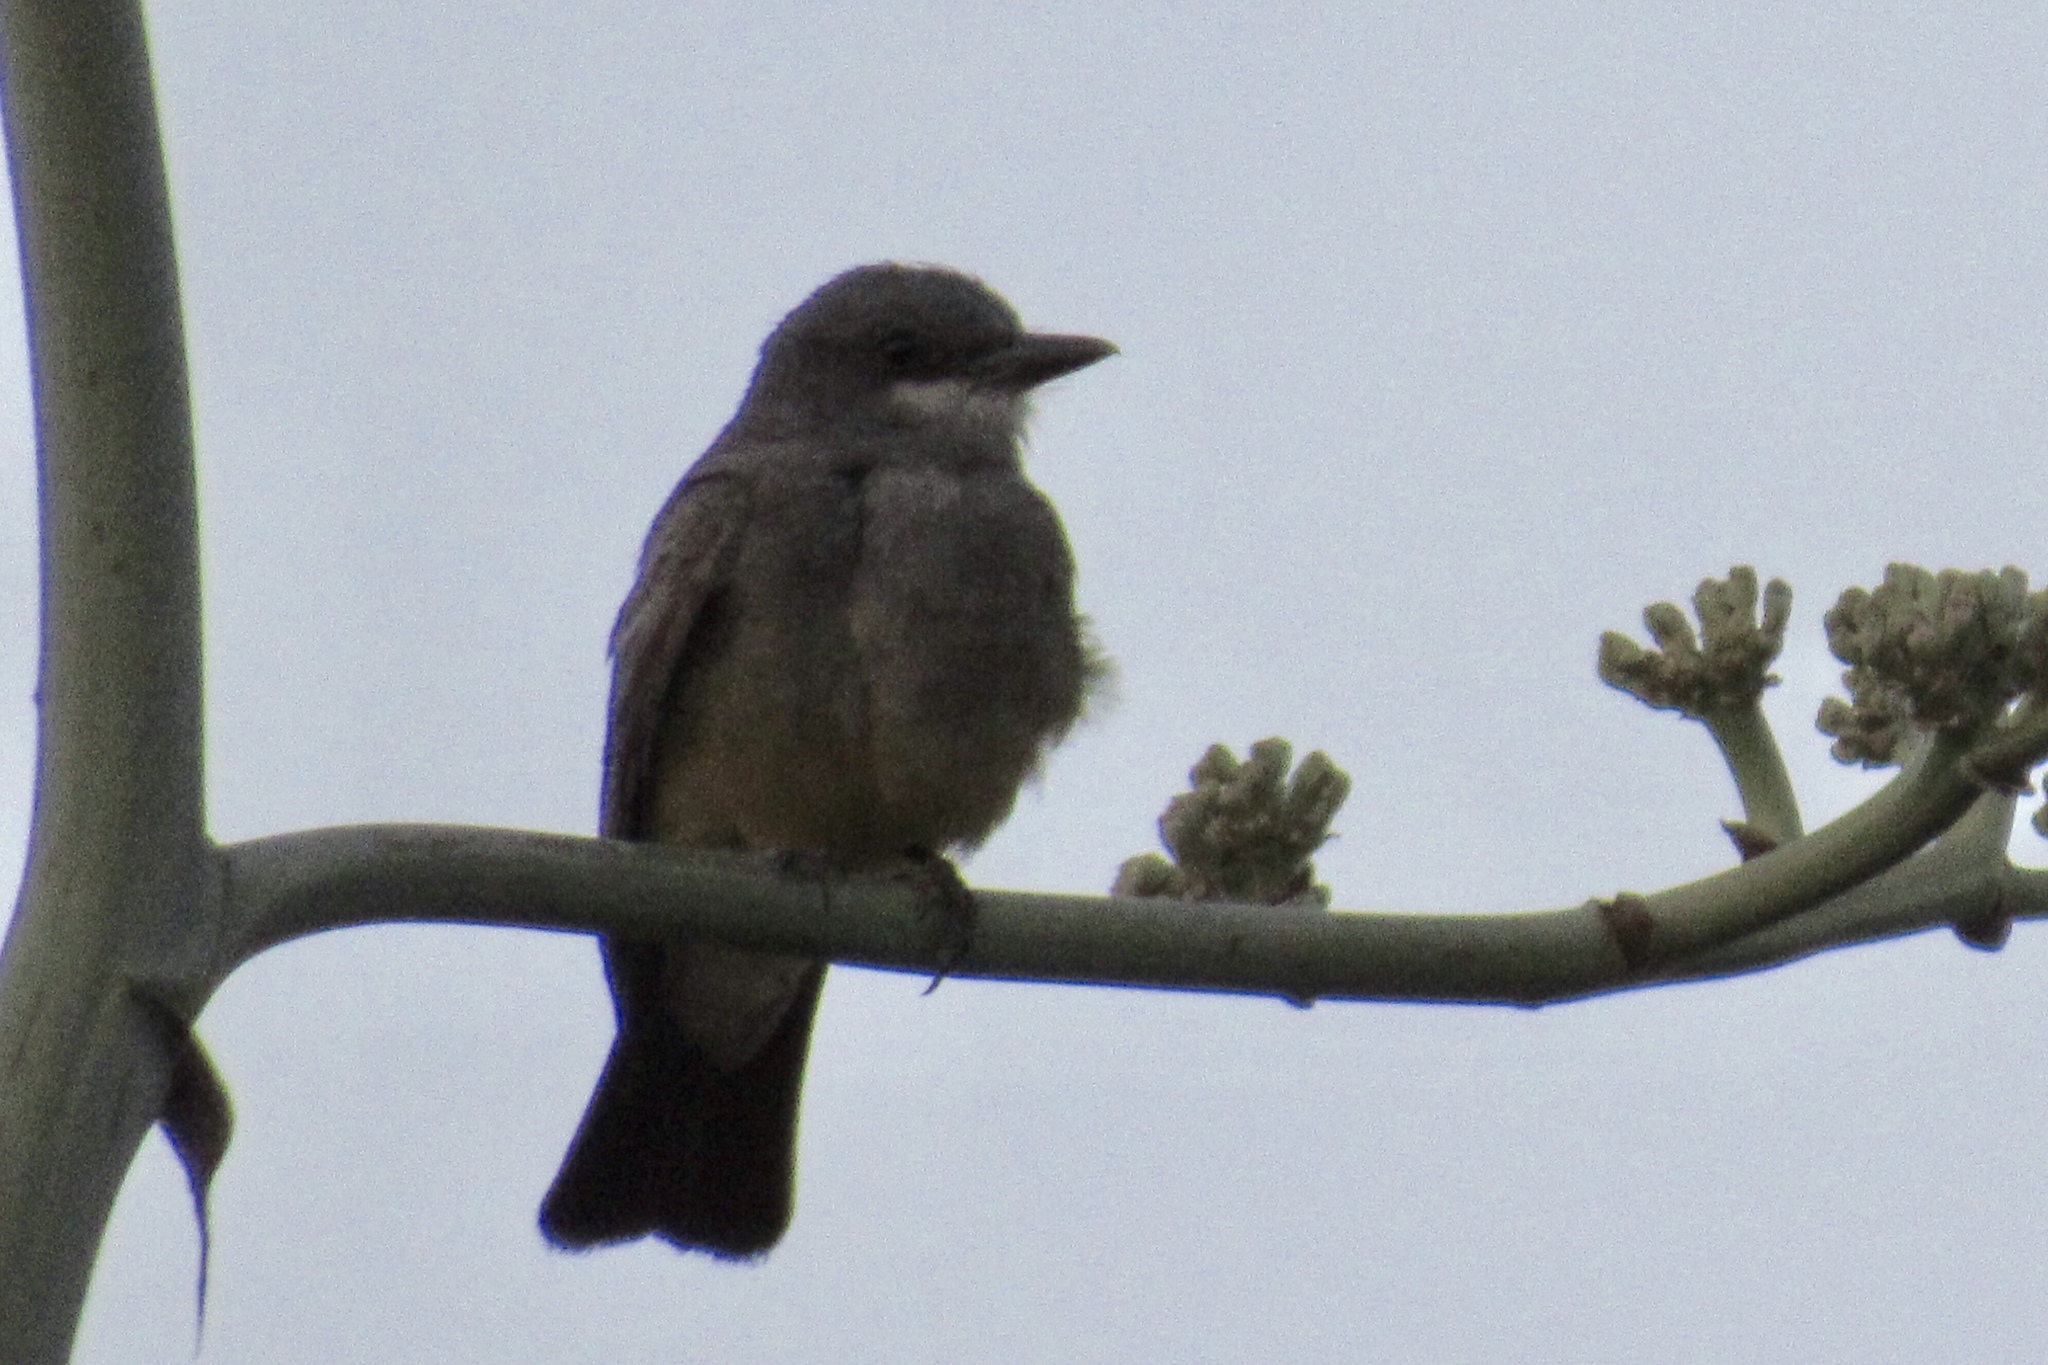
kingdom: Animalia
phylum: Chordata
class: Aves
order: Passeriformes
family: Tyrannidae
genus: Tyrannus
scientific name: Tyrannus vociferans
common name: Cassin's kingbird
